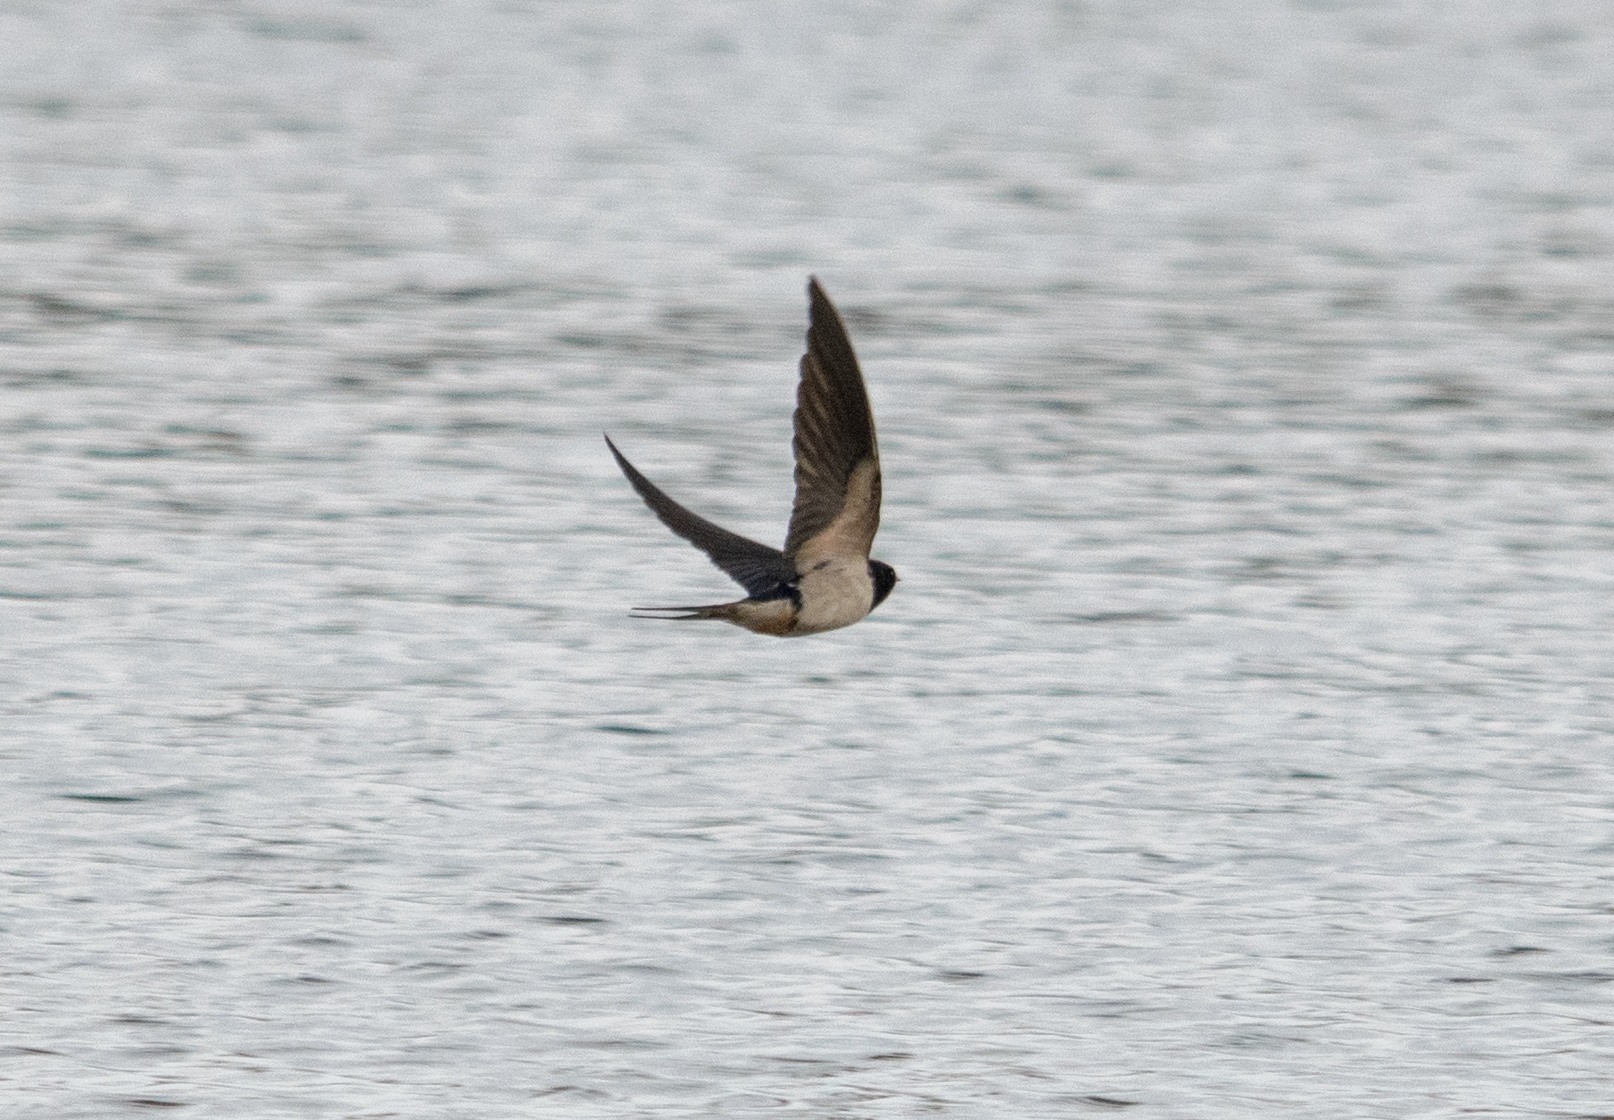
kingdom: Animalia
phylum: Chordata
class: Aves
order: Passeriformes
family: Hirundinidae
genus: Hirundo
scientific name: Hirundo rustica
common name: Barn swallow
